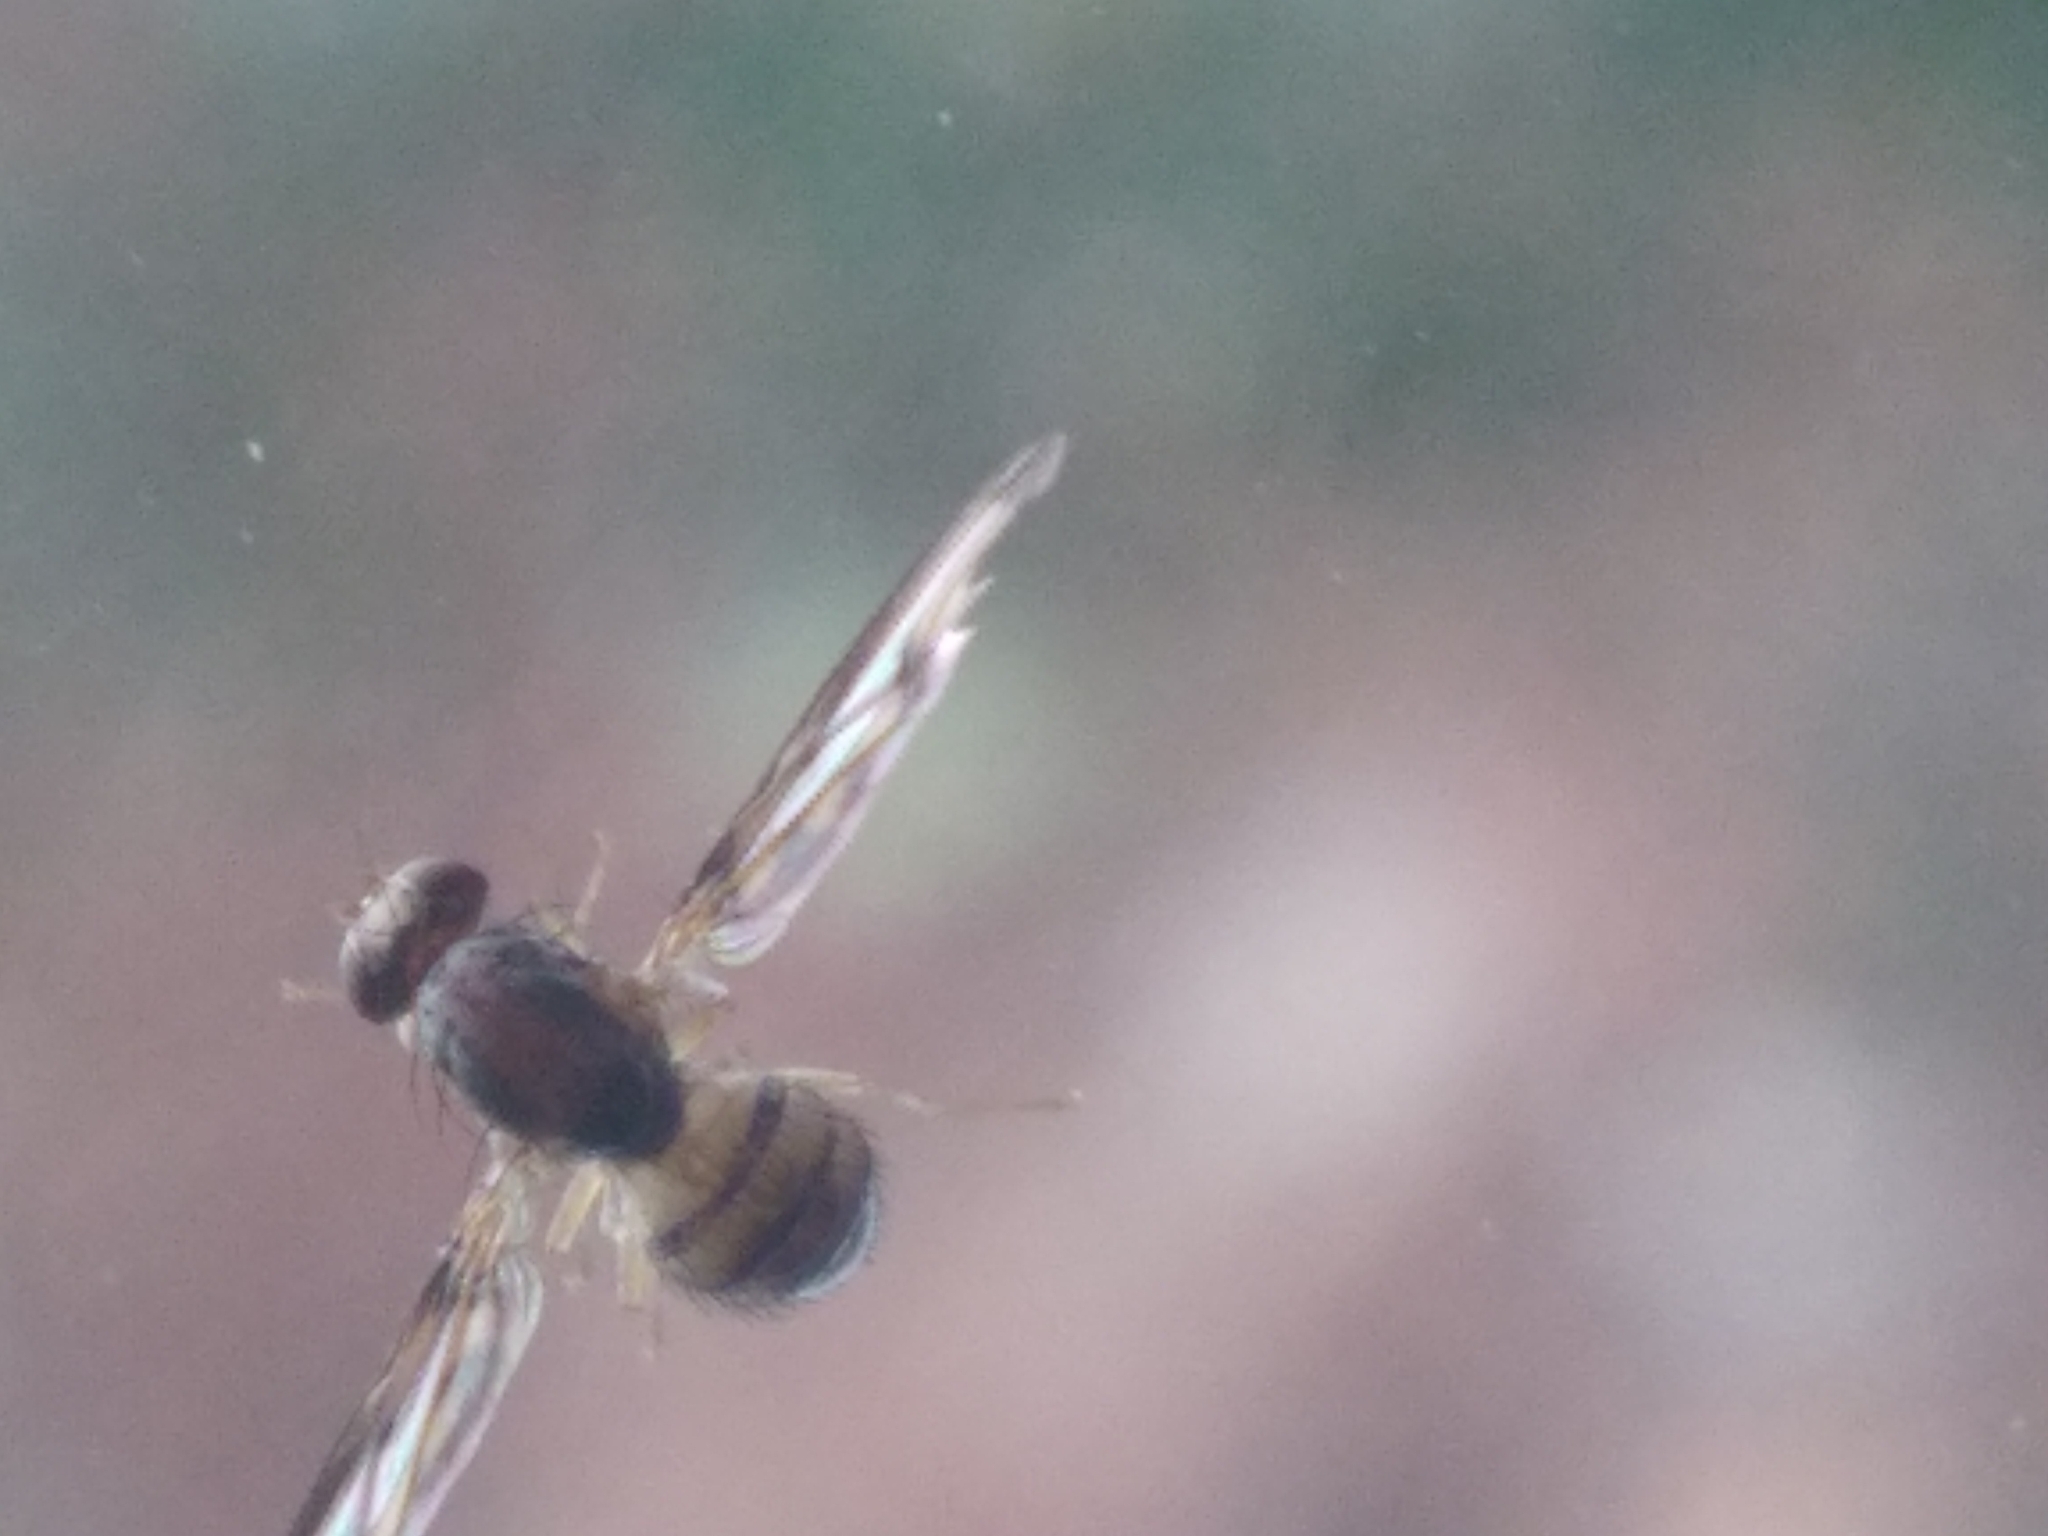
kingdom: Animalia
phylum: Arthropoda
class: Insecta
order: Diptera
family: Pallopteridae
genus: Toxonevra
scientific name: Toxonevra muliebris
